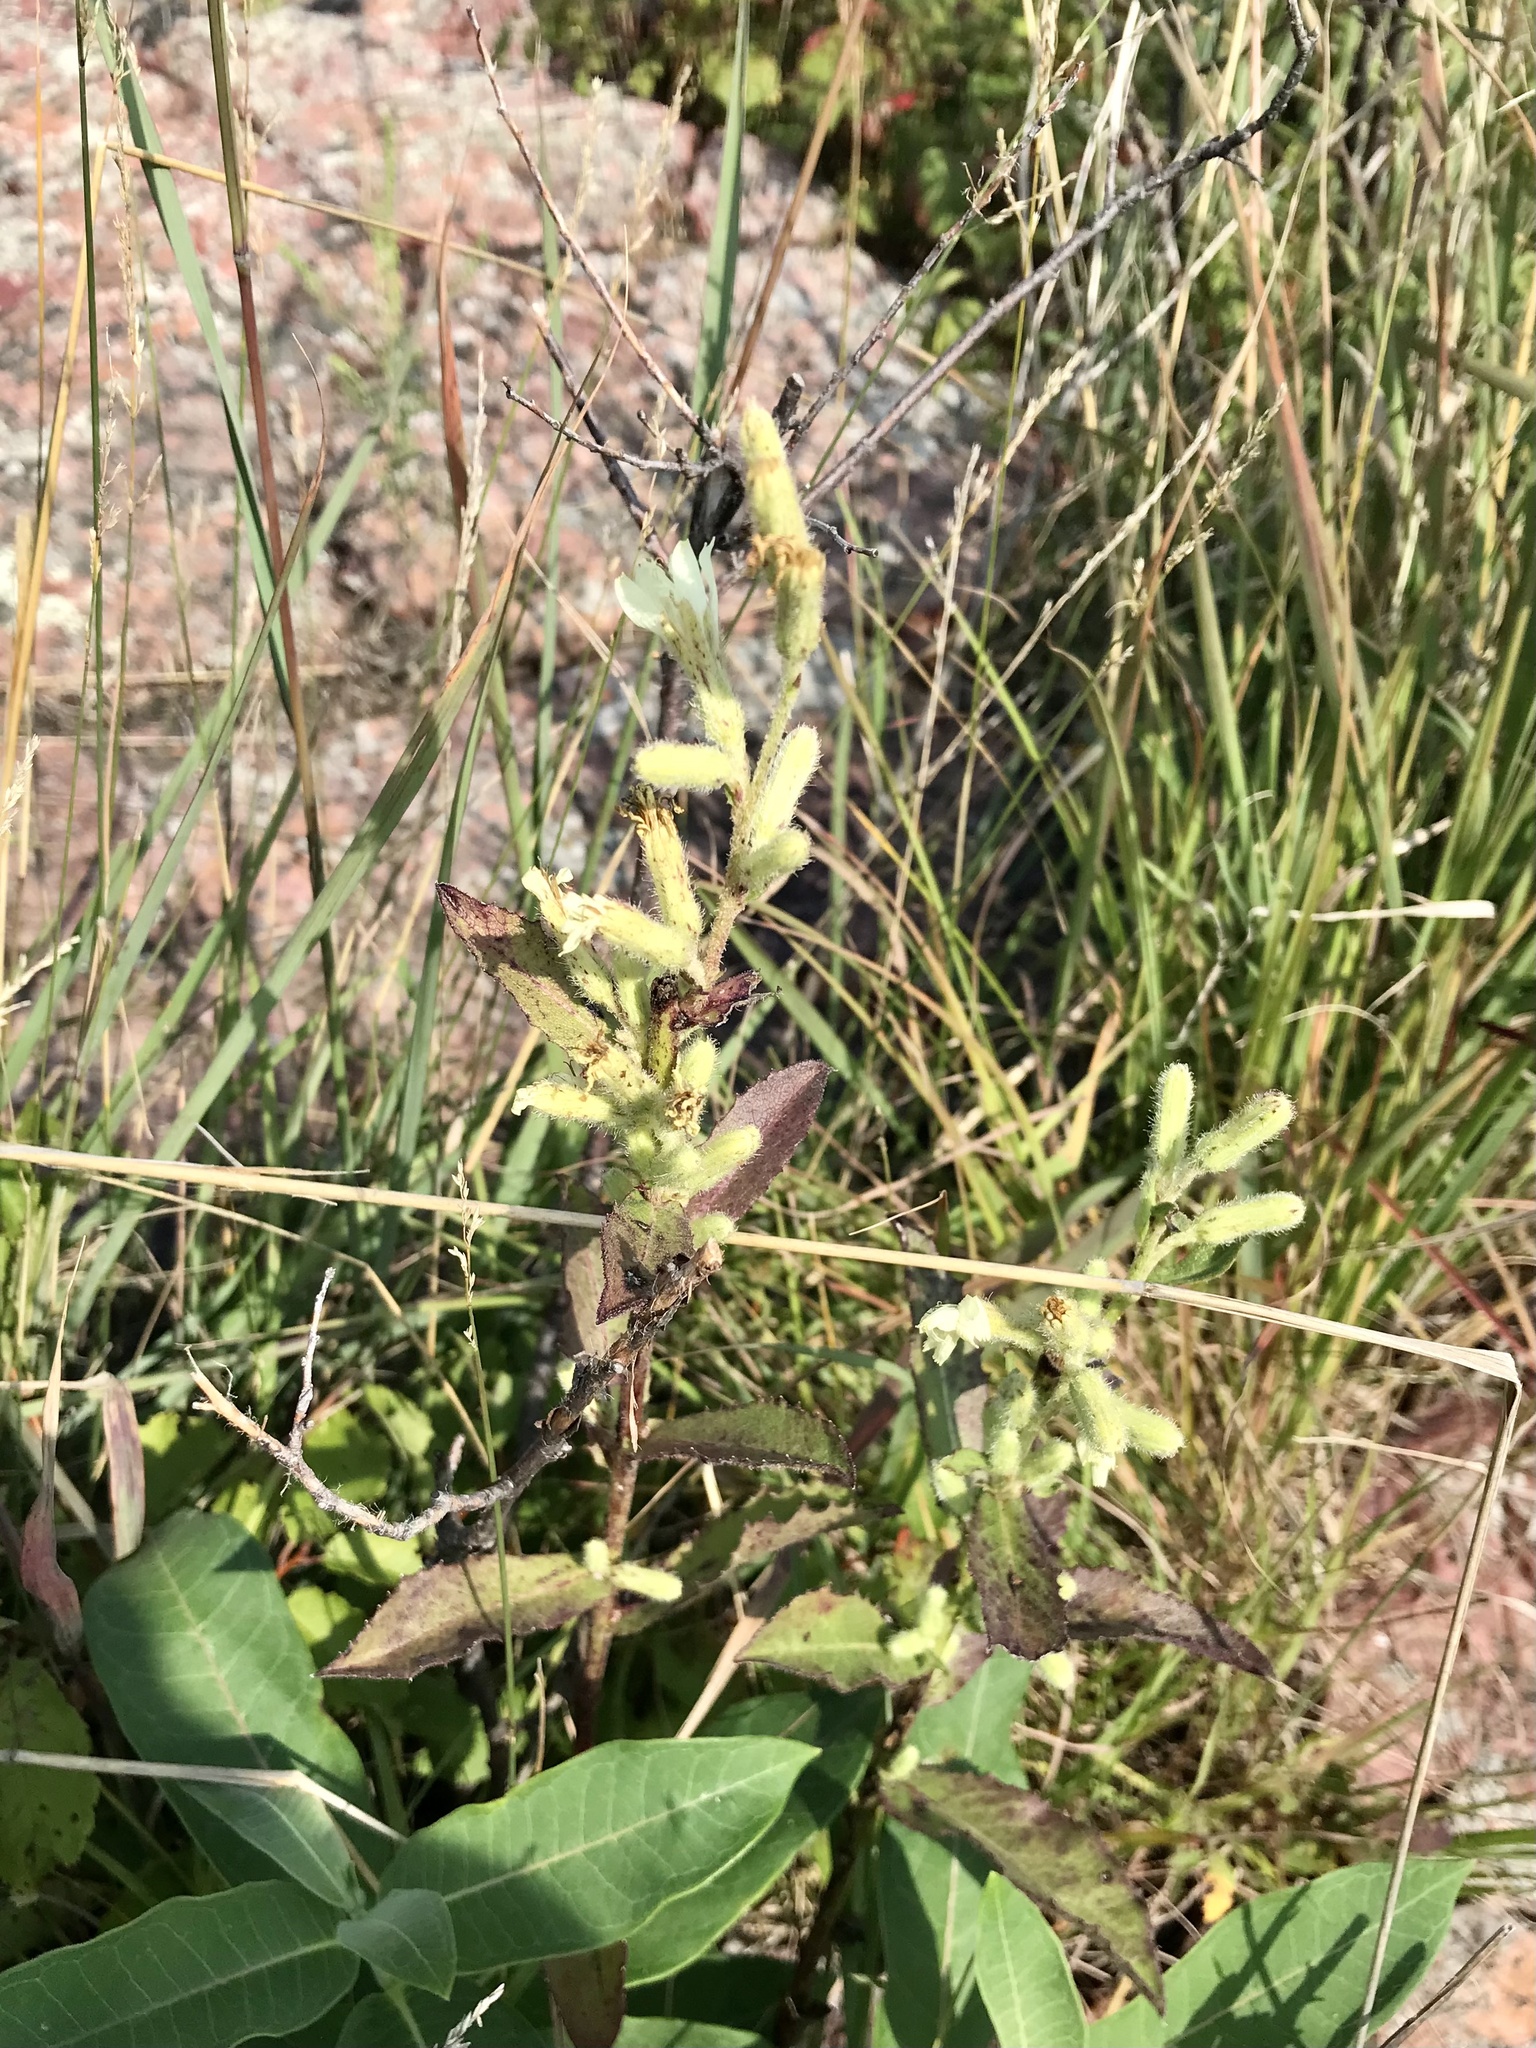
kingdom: Plantae
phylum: Tracheophyta
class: Magnoliopsida
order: Asterales
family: Asteraceae
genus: Nabalus
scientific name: Nabalus asper
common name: Rough rattlesnakeroot
